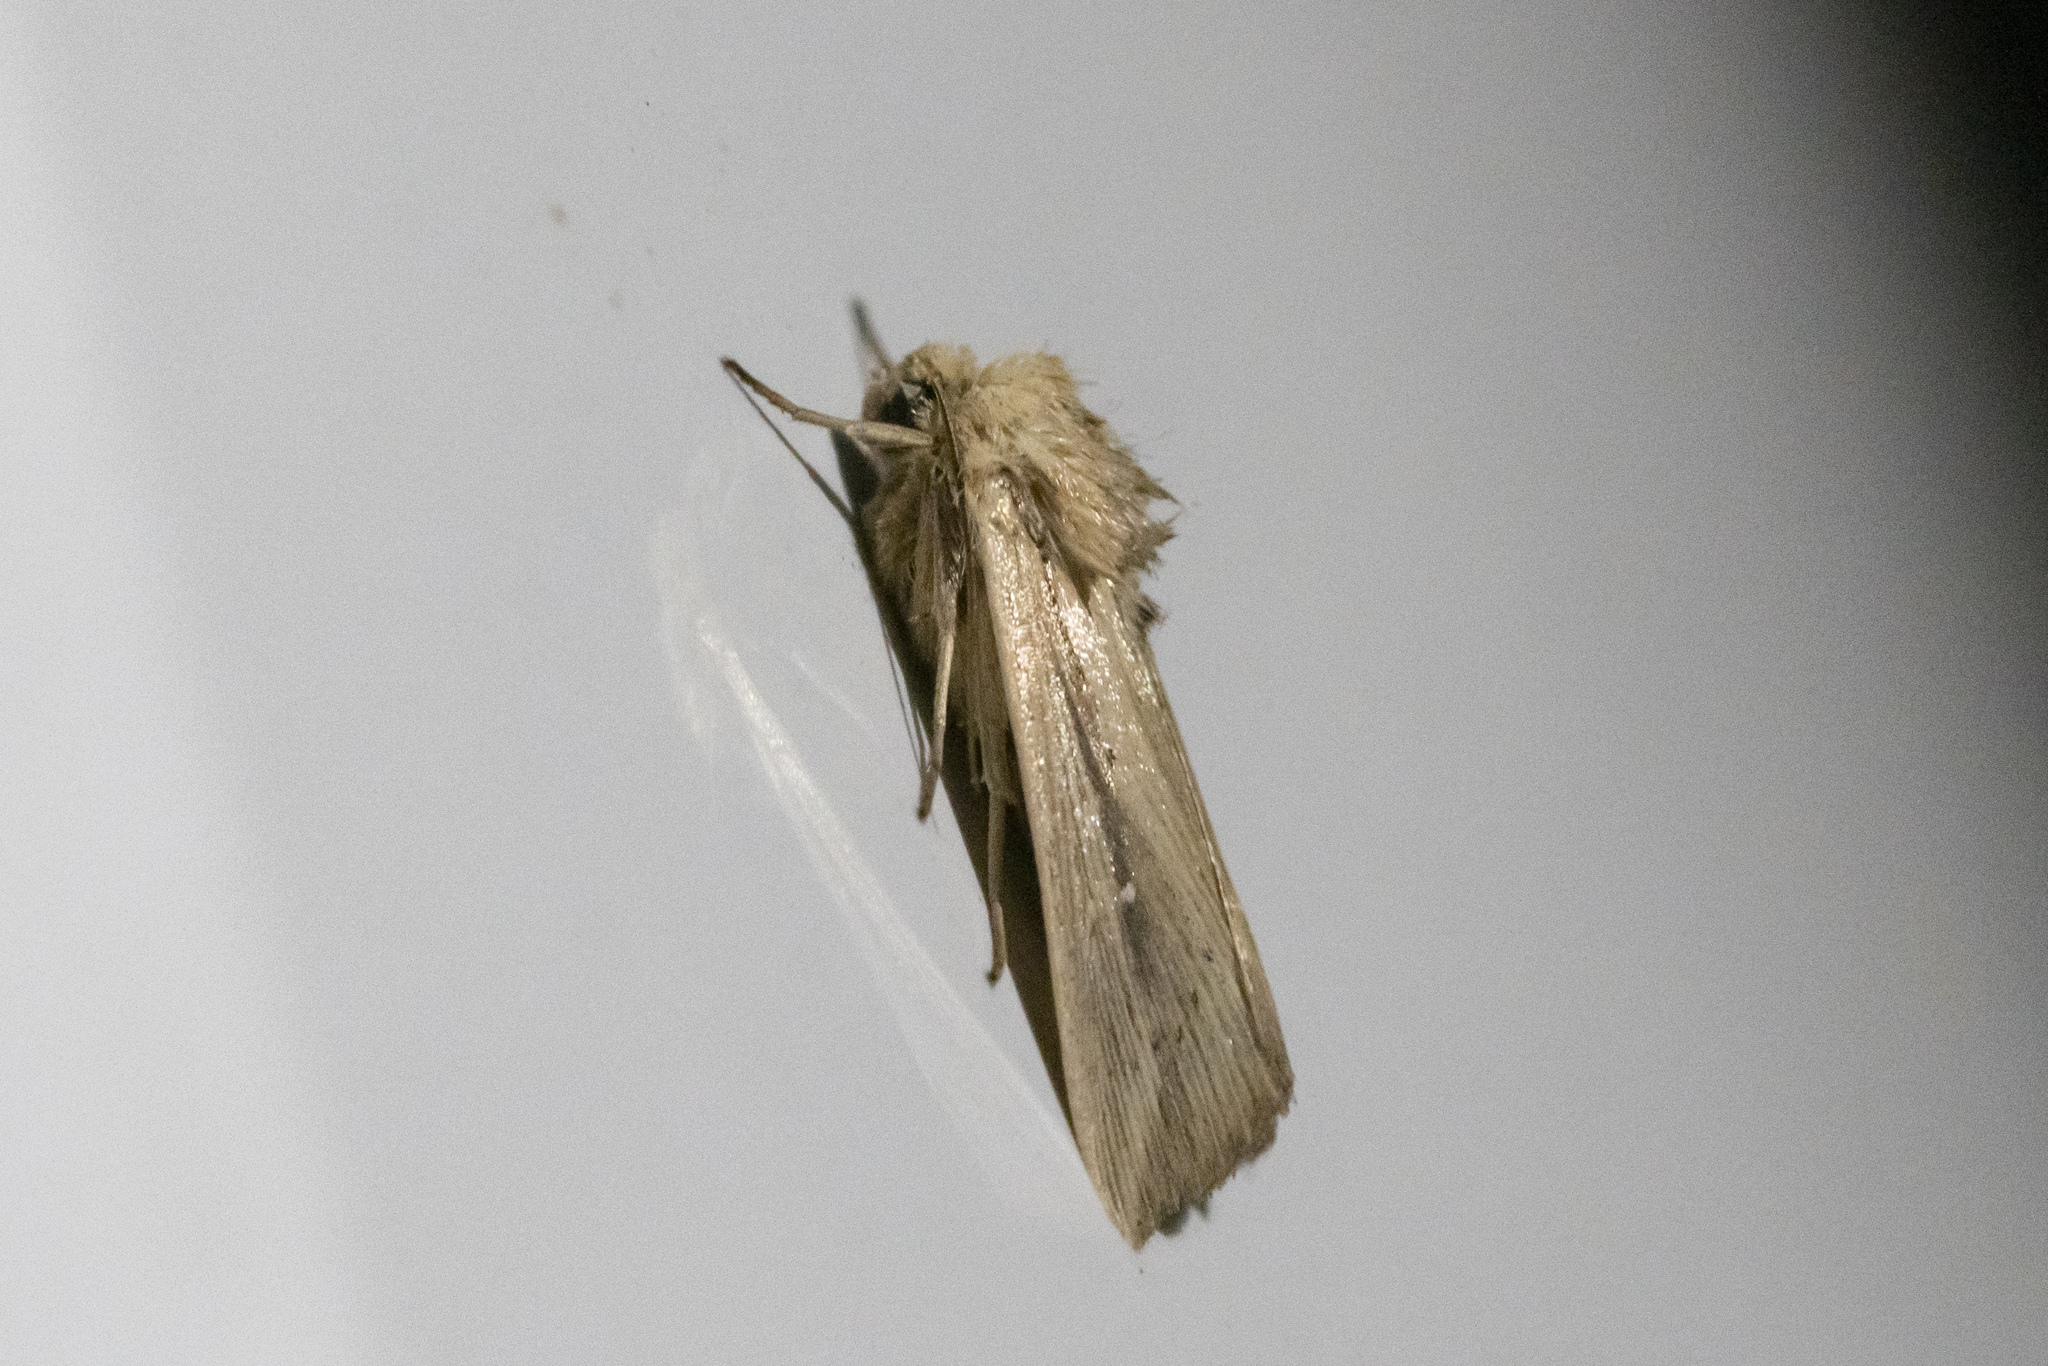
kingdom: Animalia
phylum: Arthropoda
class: Insecta
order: Lepidoptera
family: Noctuidae
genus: Leucania
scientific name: Leucania loreyi
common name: The cosmopolitan
